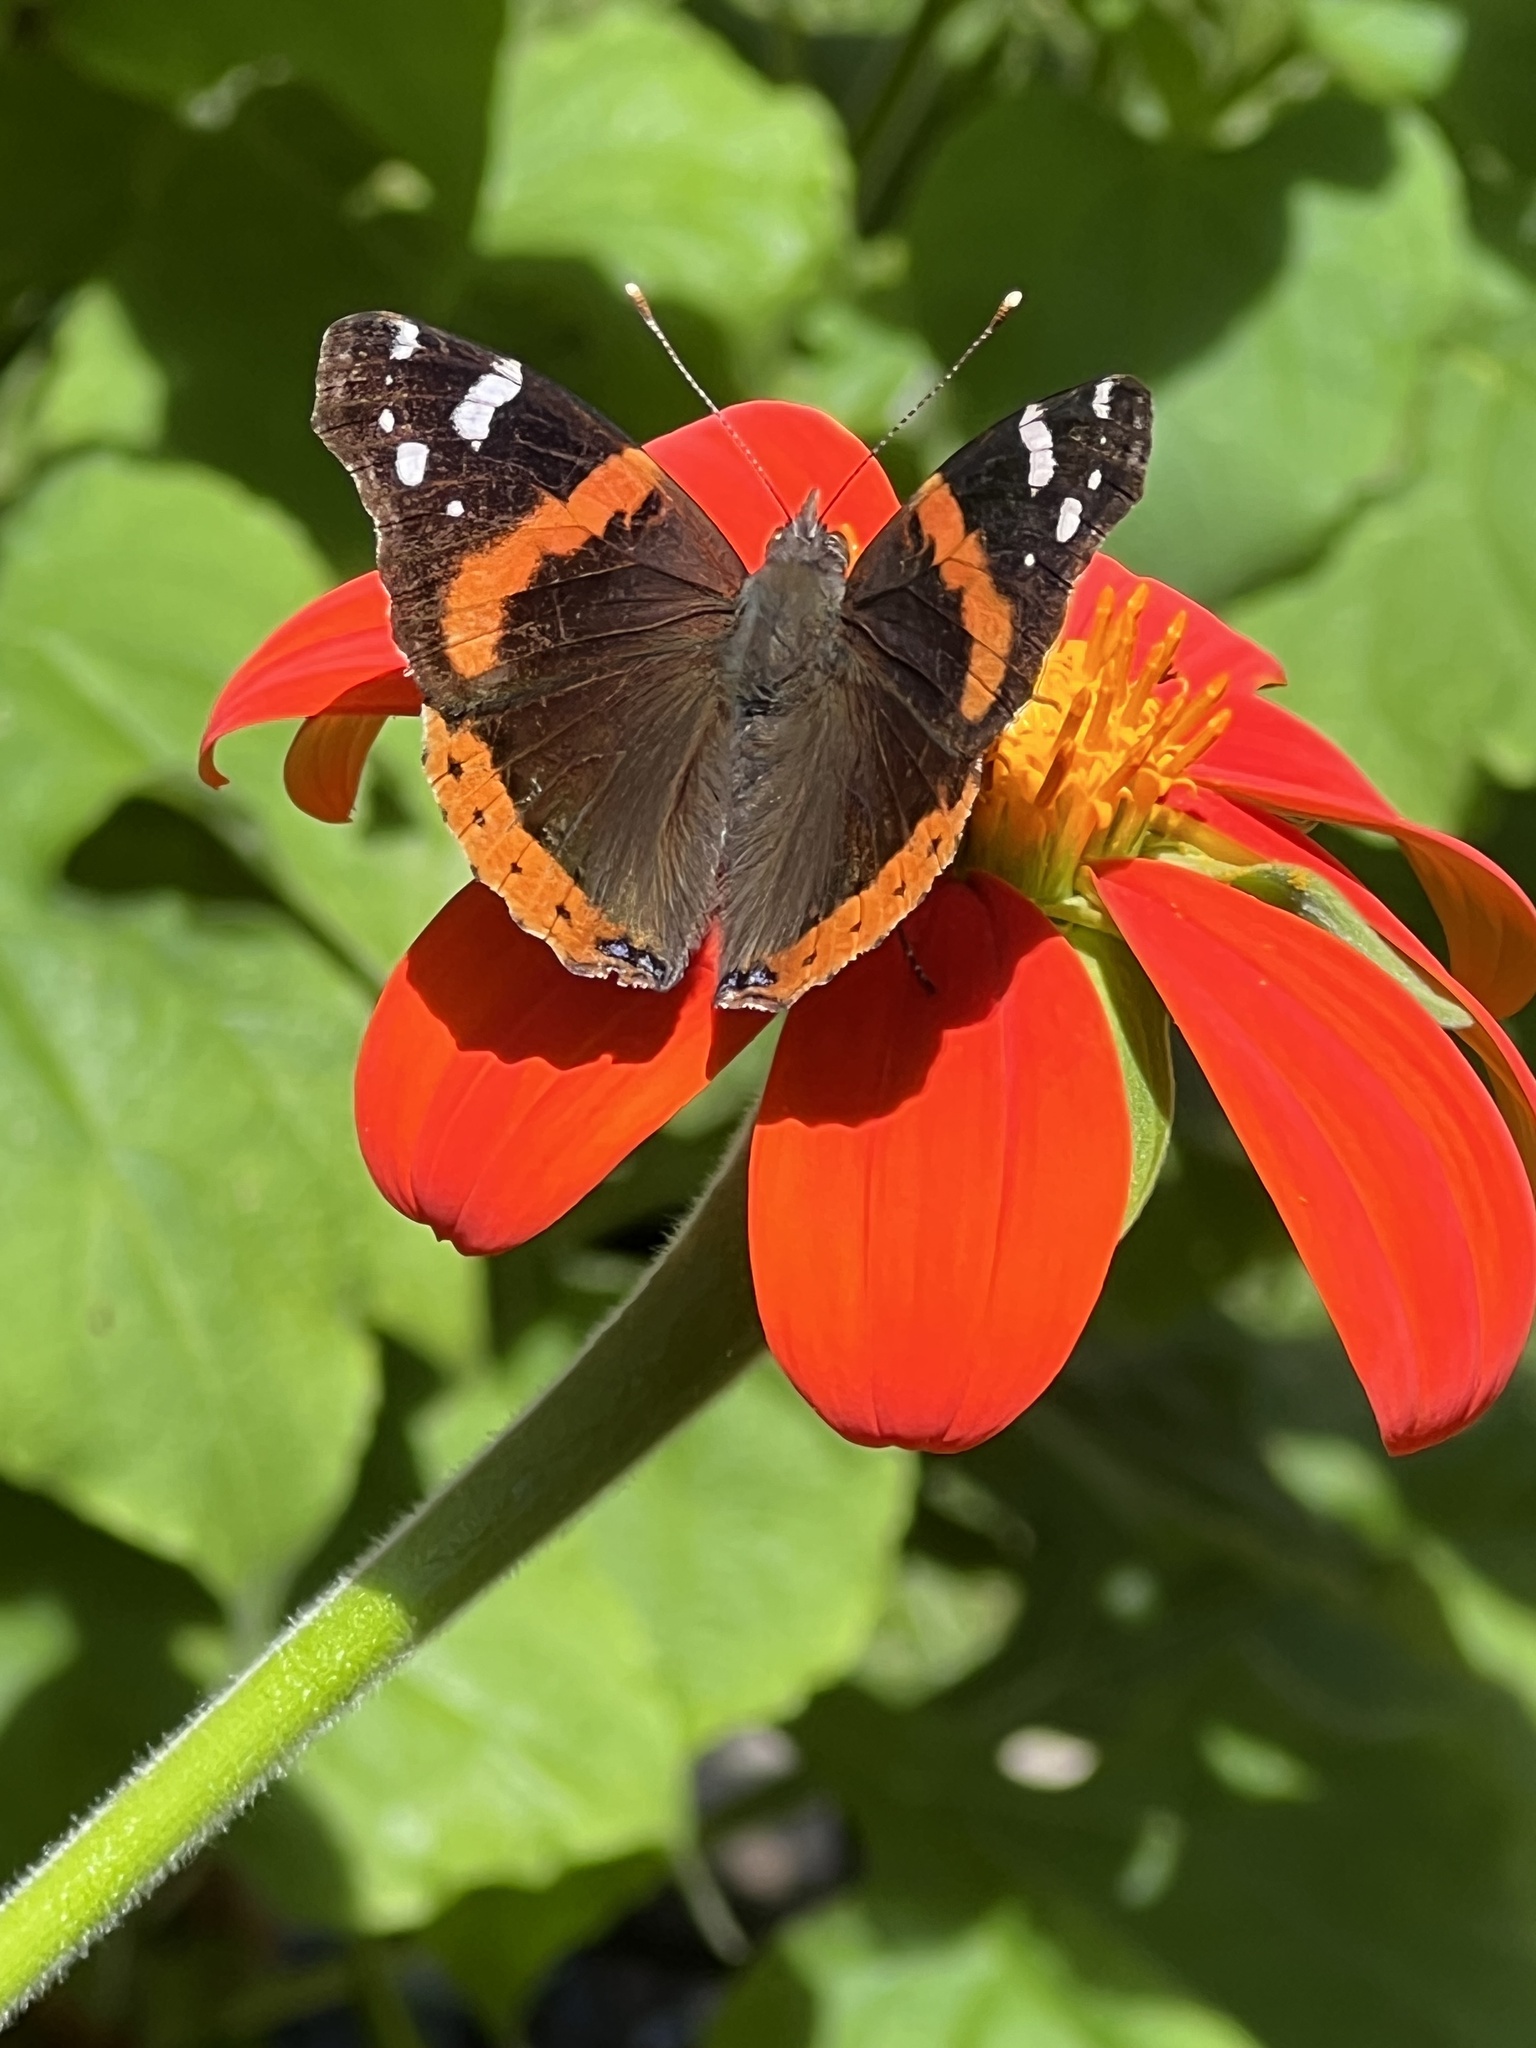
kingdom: Animalia
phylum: Arthropoda
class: Insecta
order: Lepidoptera
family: Nymphalidae
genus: Vanessa
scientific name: Vanessa atalanta
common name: Red admiral
